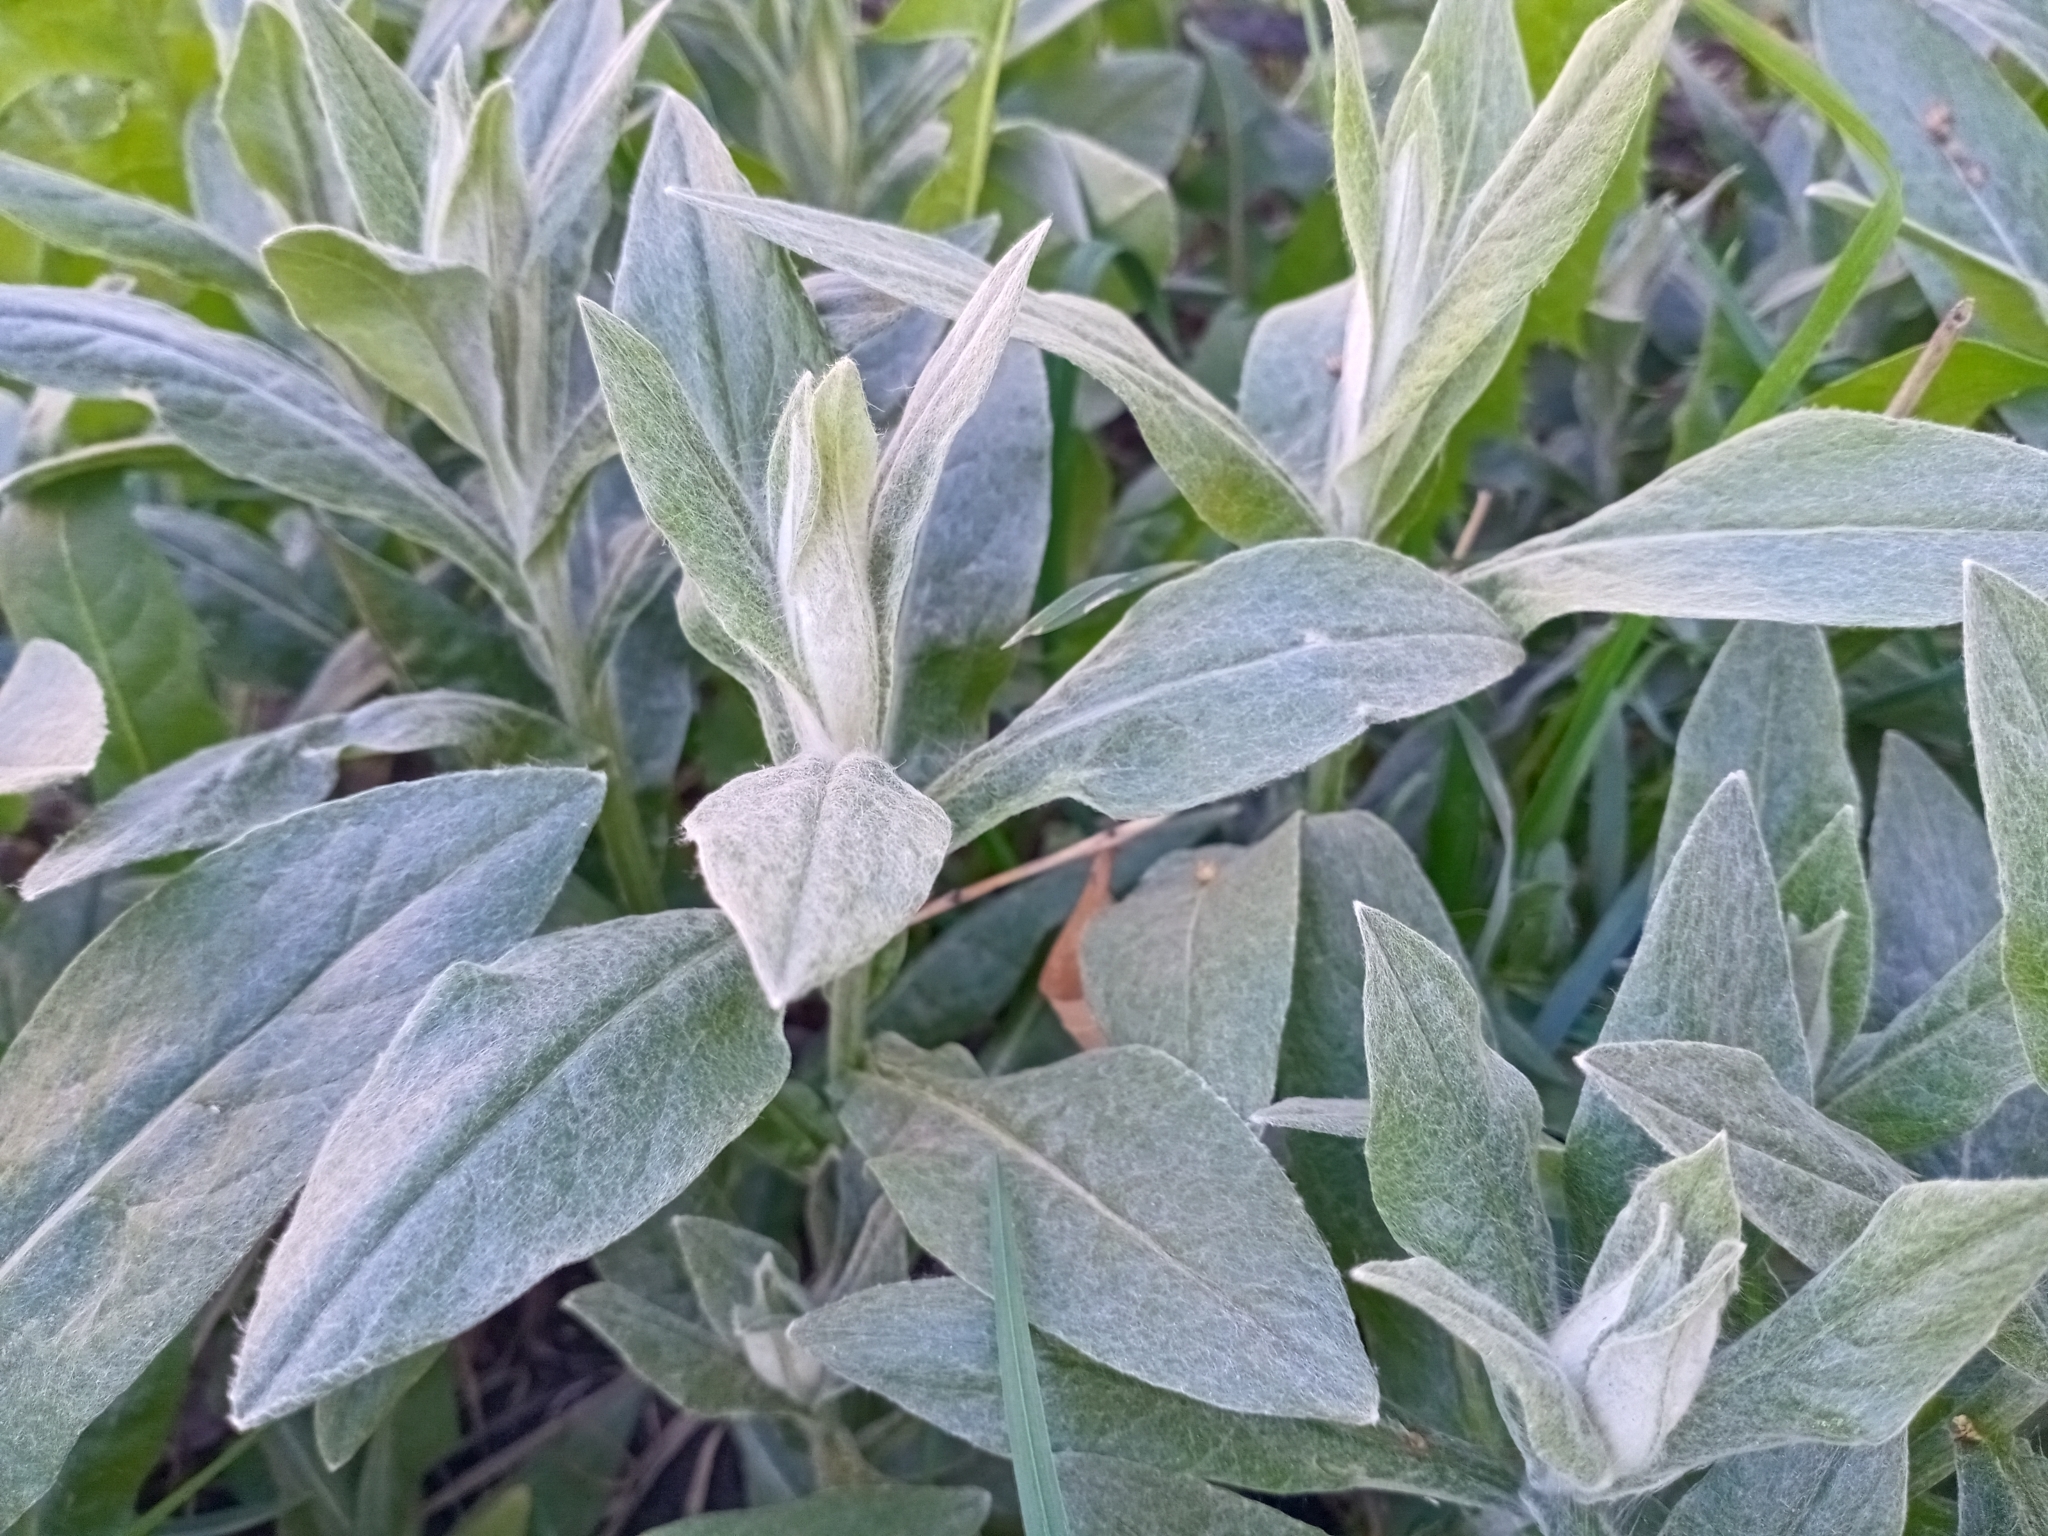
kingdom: Plantae
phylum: Tracheophyta
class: Magnoliopsida
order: Asterales
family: Asteraceae
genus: Centaurea
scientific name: Centaurea montana
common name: Perennial cornflower
